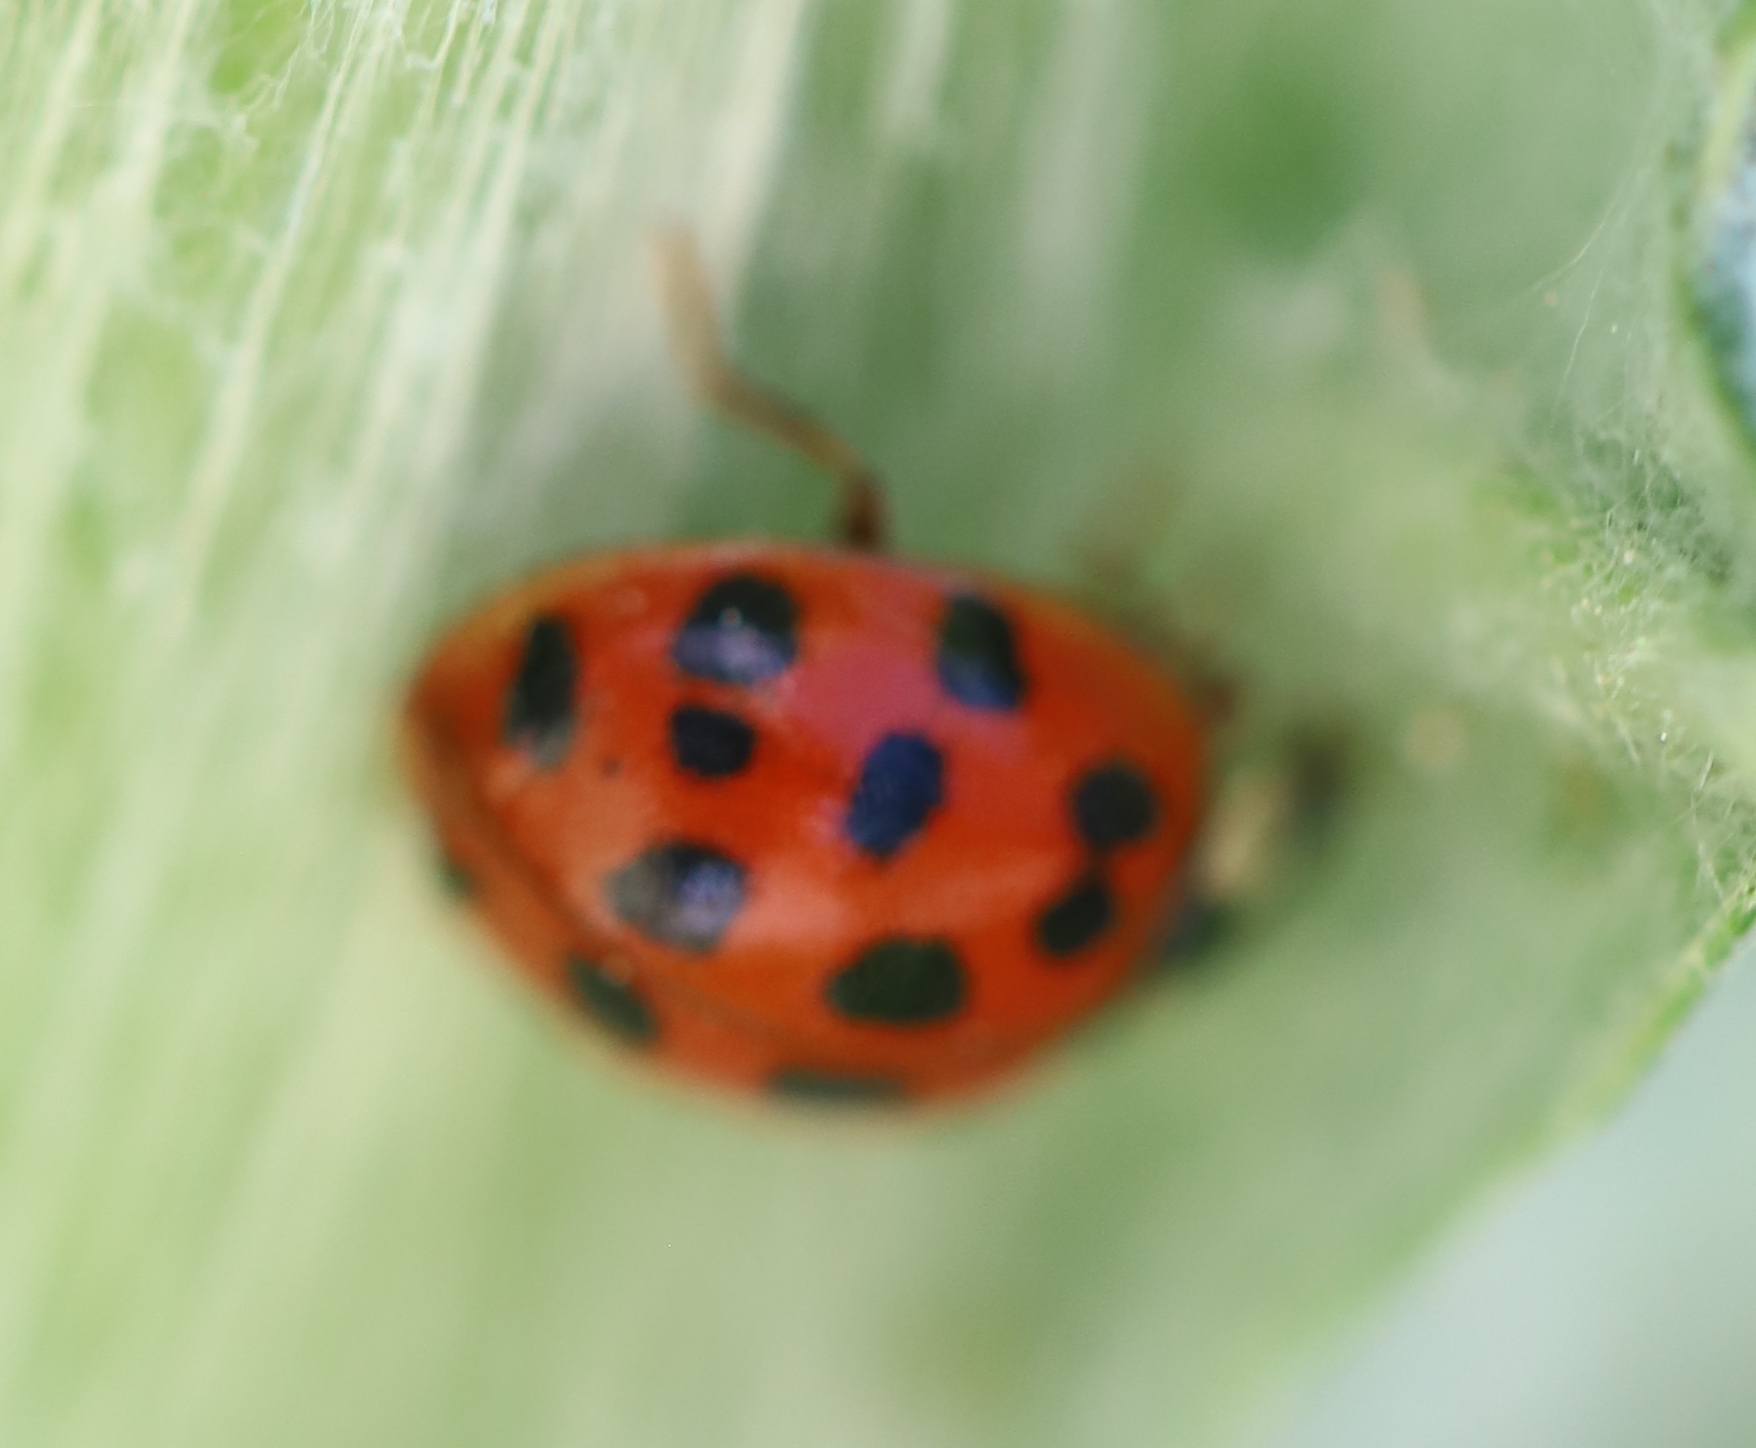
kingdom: Animalia
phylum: Arthropoda
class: Insecta
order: Coleoptera
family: Coccinellidae
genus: Harmonia
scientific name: Harmonia axyridis
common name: Harlequin ladybird
